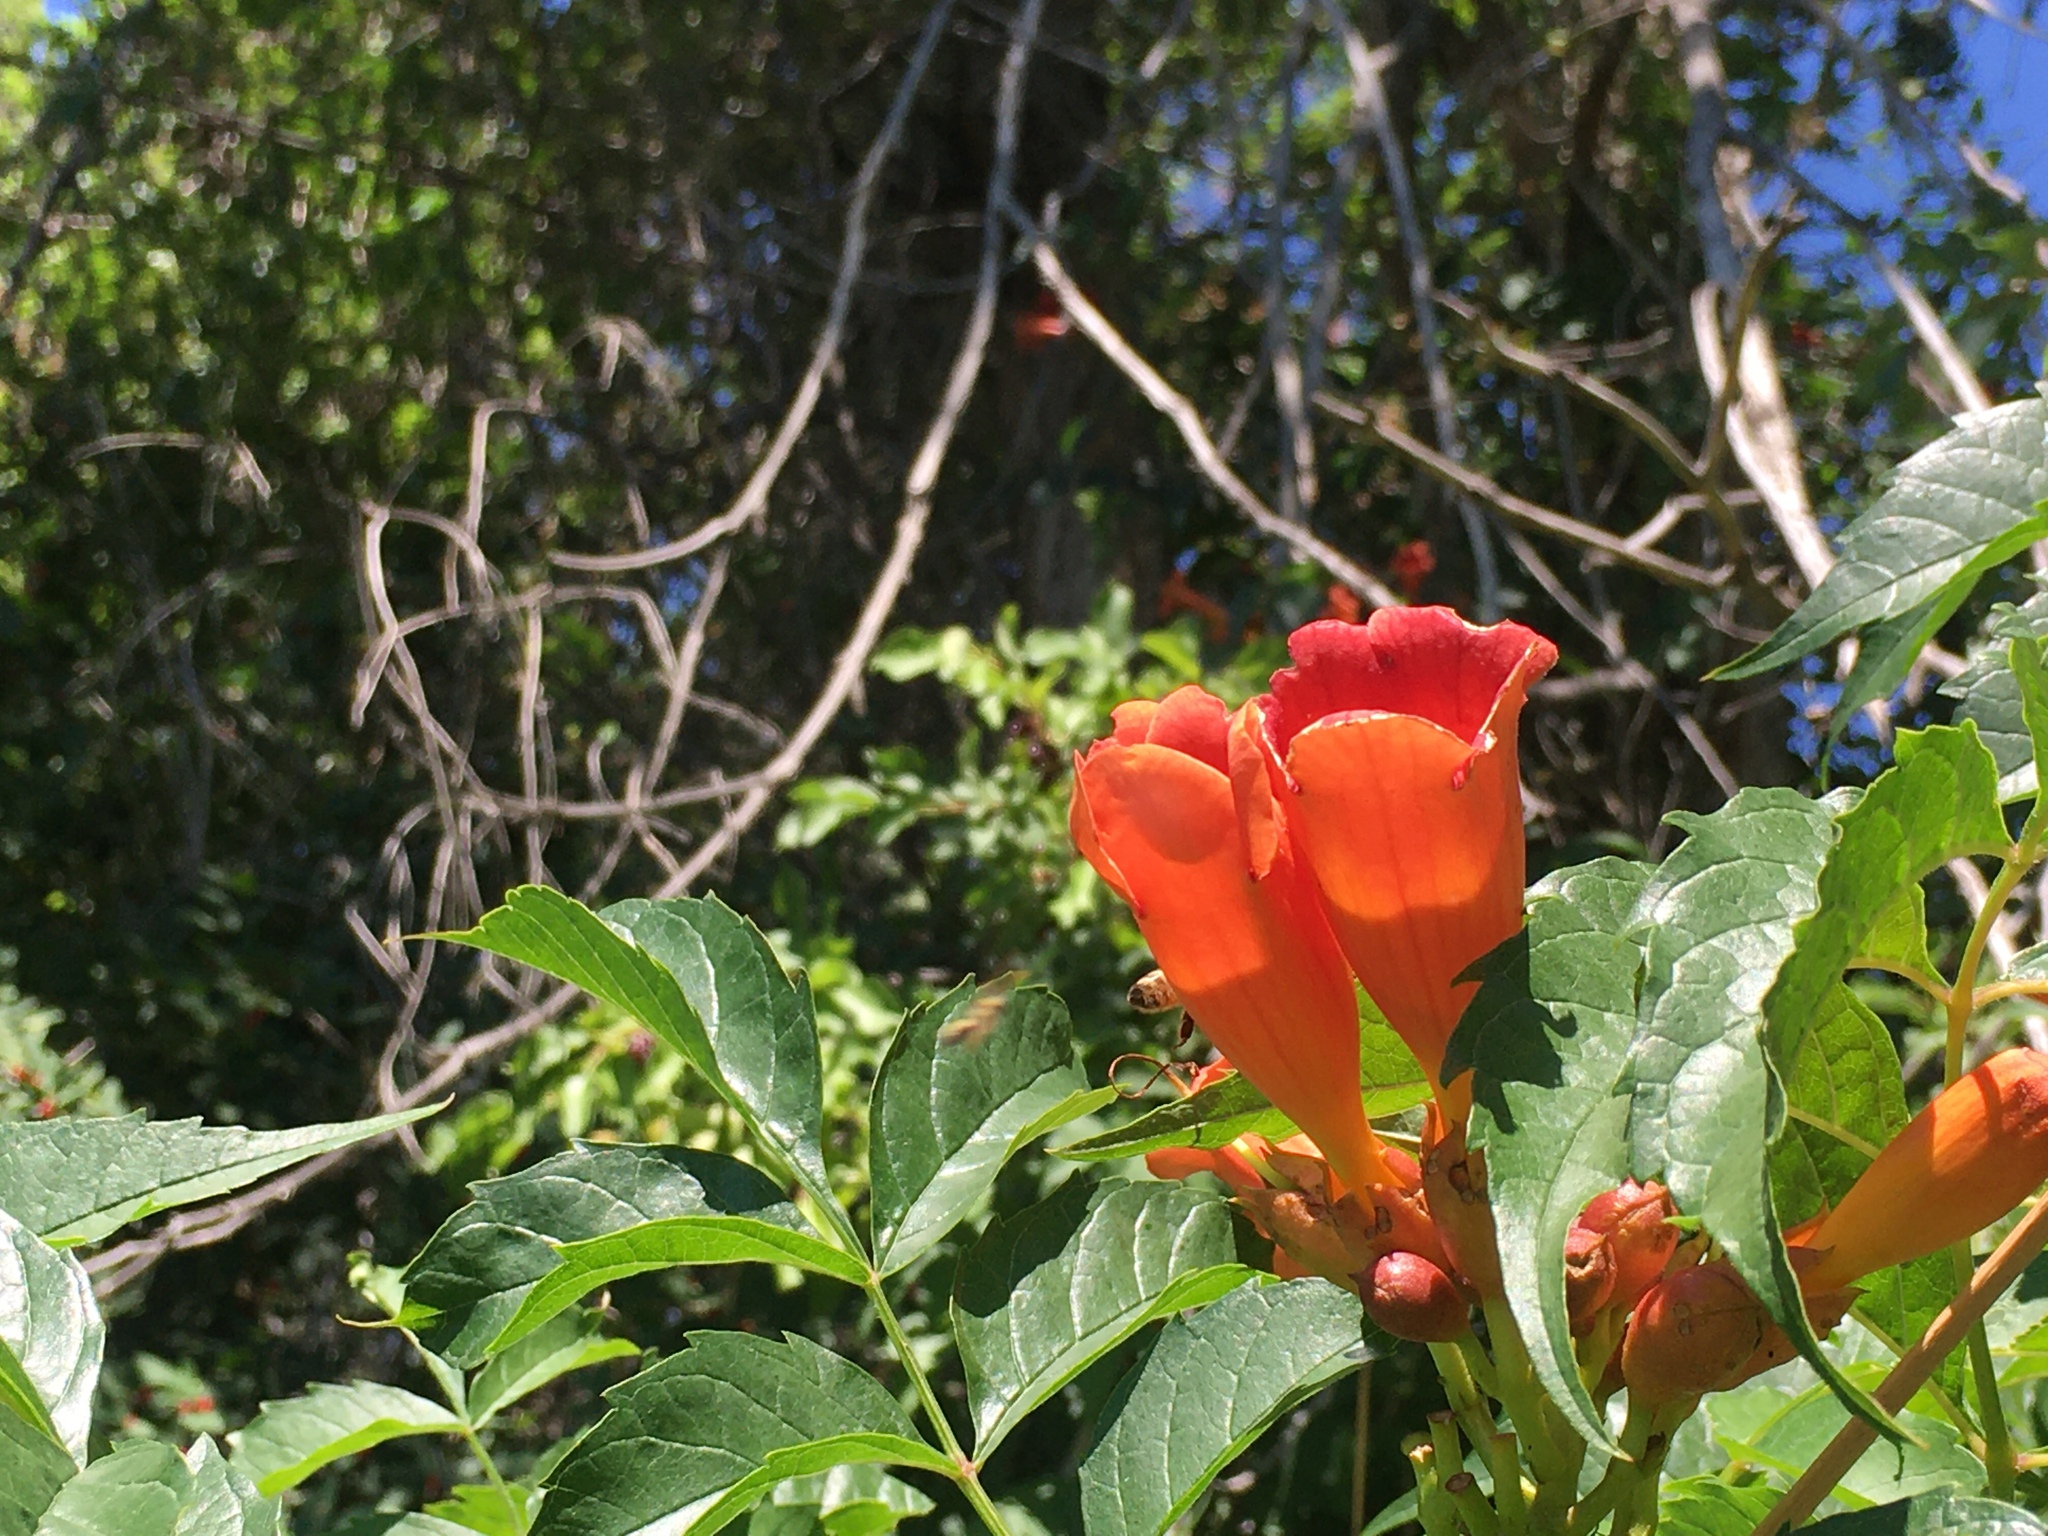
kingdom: Plantae
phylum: Tracheophyta
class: Magnoliopsida
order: Lamiales
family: Bignoniaceae
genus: Campsis
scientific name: Campsis radicans
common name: Trumpet-creeper
